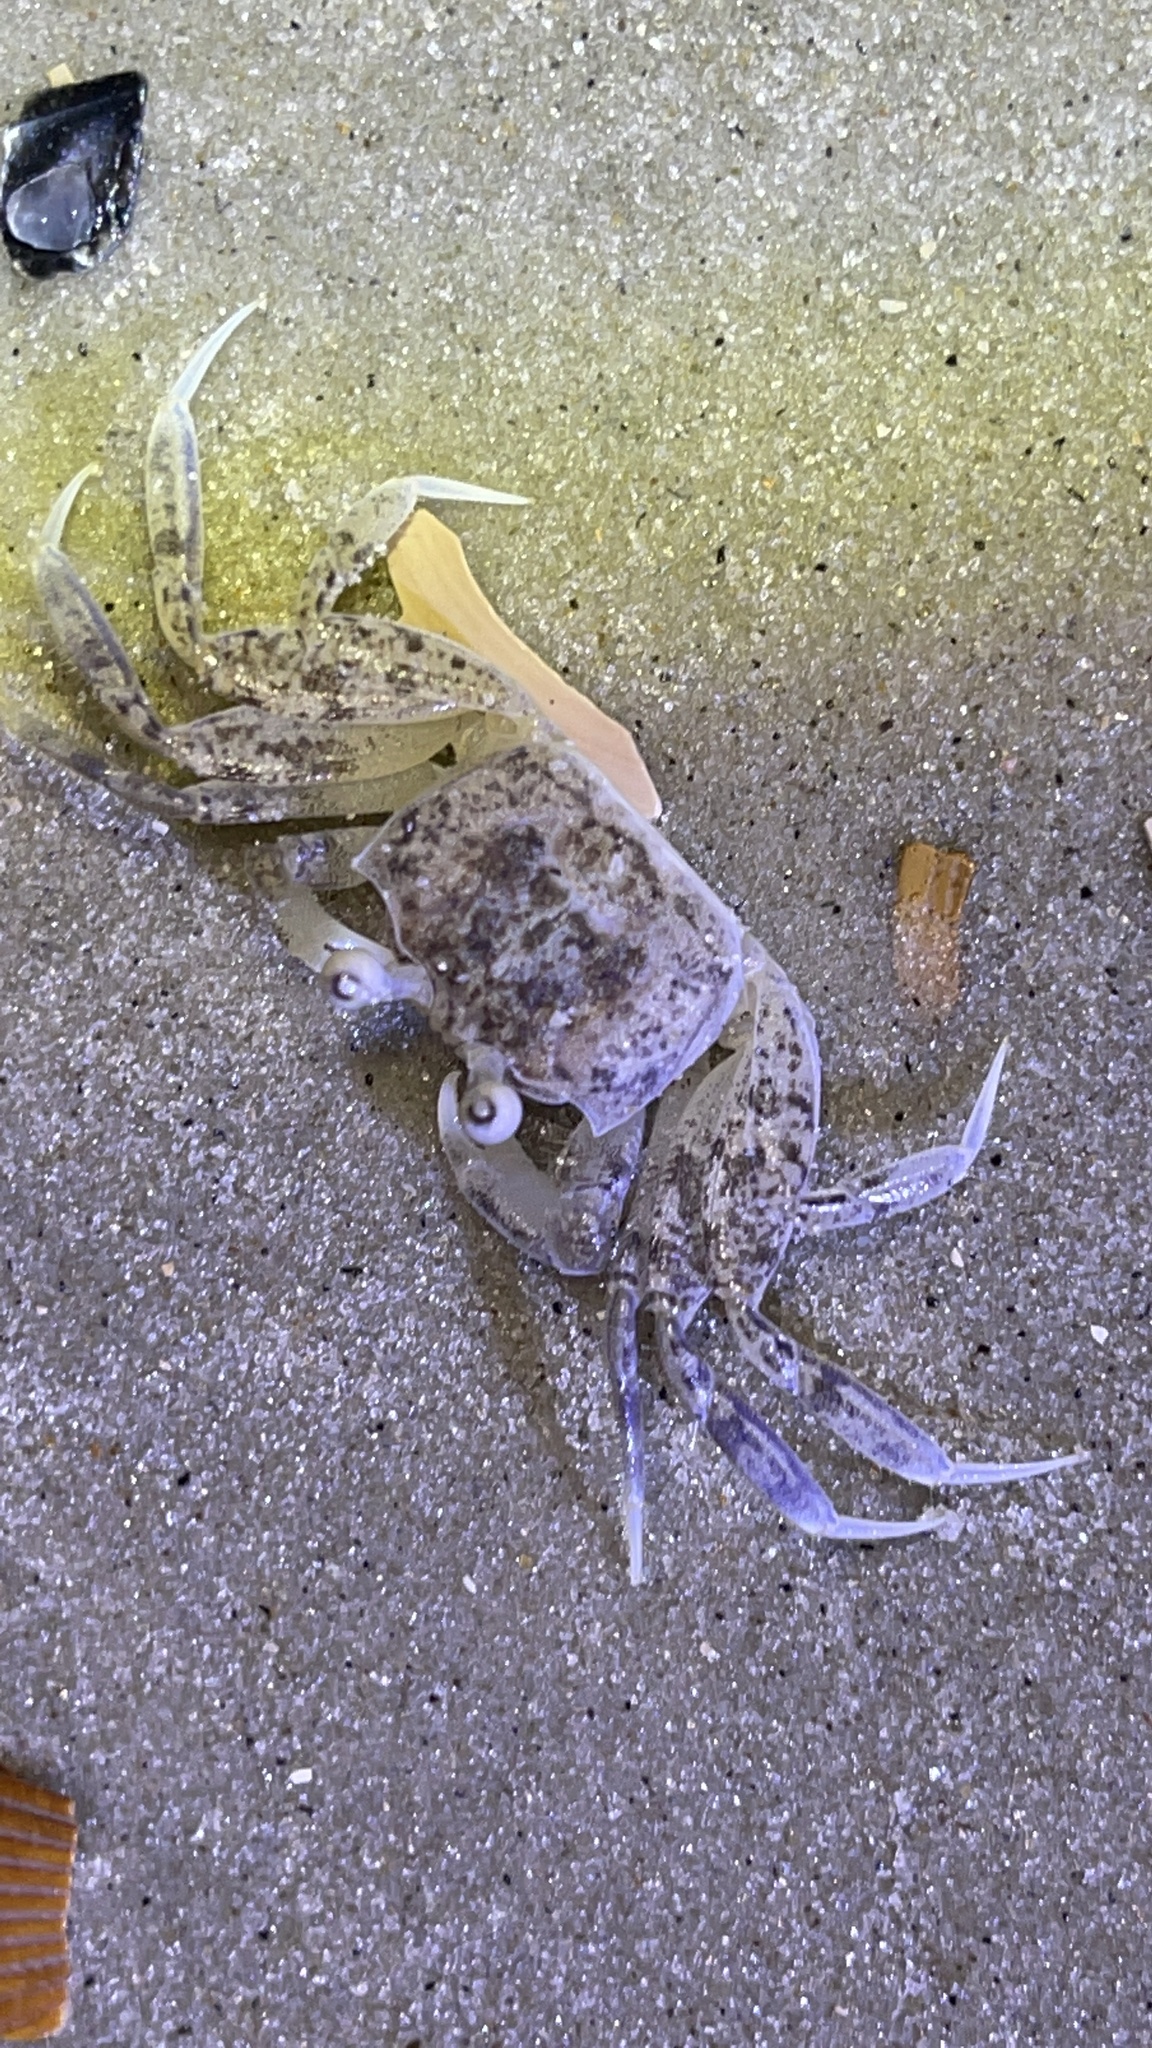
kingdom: Animalia
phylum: Arthropoda
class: Malacostraca
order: Decapoda
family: Ocypodidae
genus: Ocypode
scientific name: Ocypode quadrata
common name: Ghost crab
